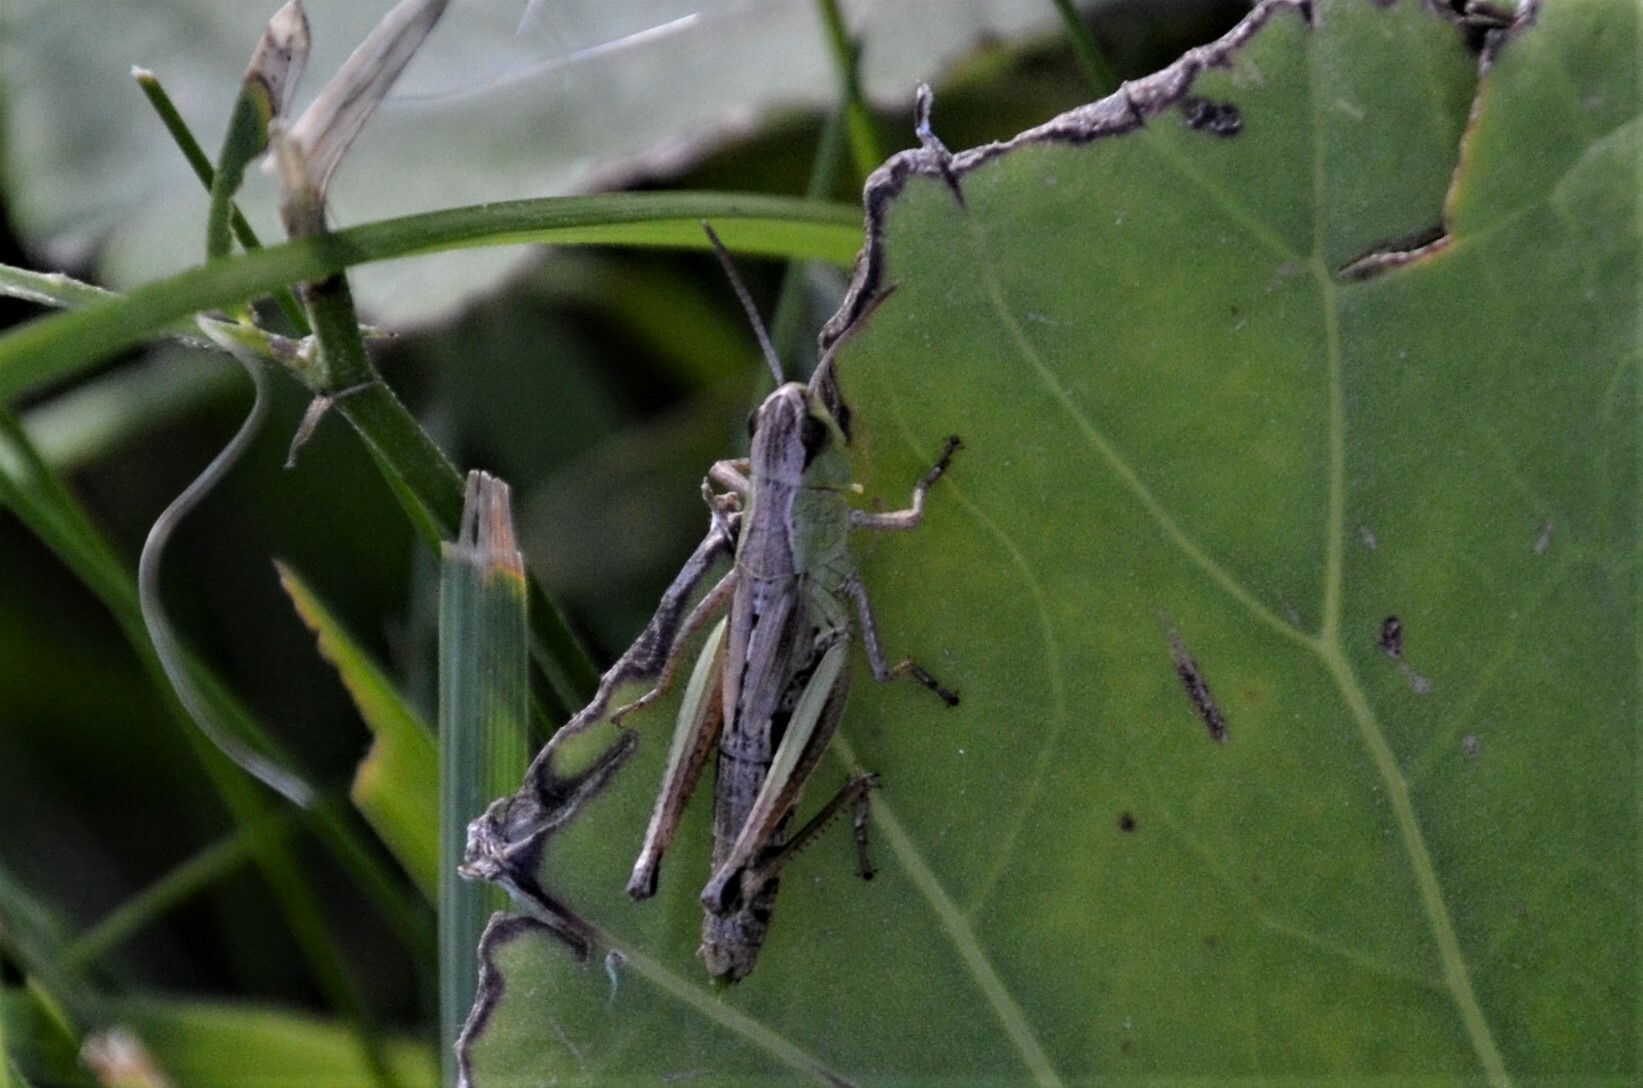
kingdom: Animalia
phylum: Arthropoda
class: Insecta
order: Orthoptera
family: Acrididae
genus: Pseudochorthippus
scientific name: Pseudochorthippus parallelus
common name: Meadow grasshopper
